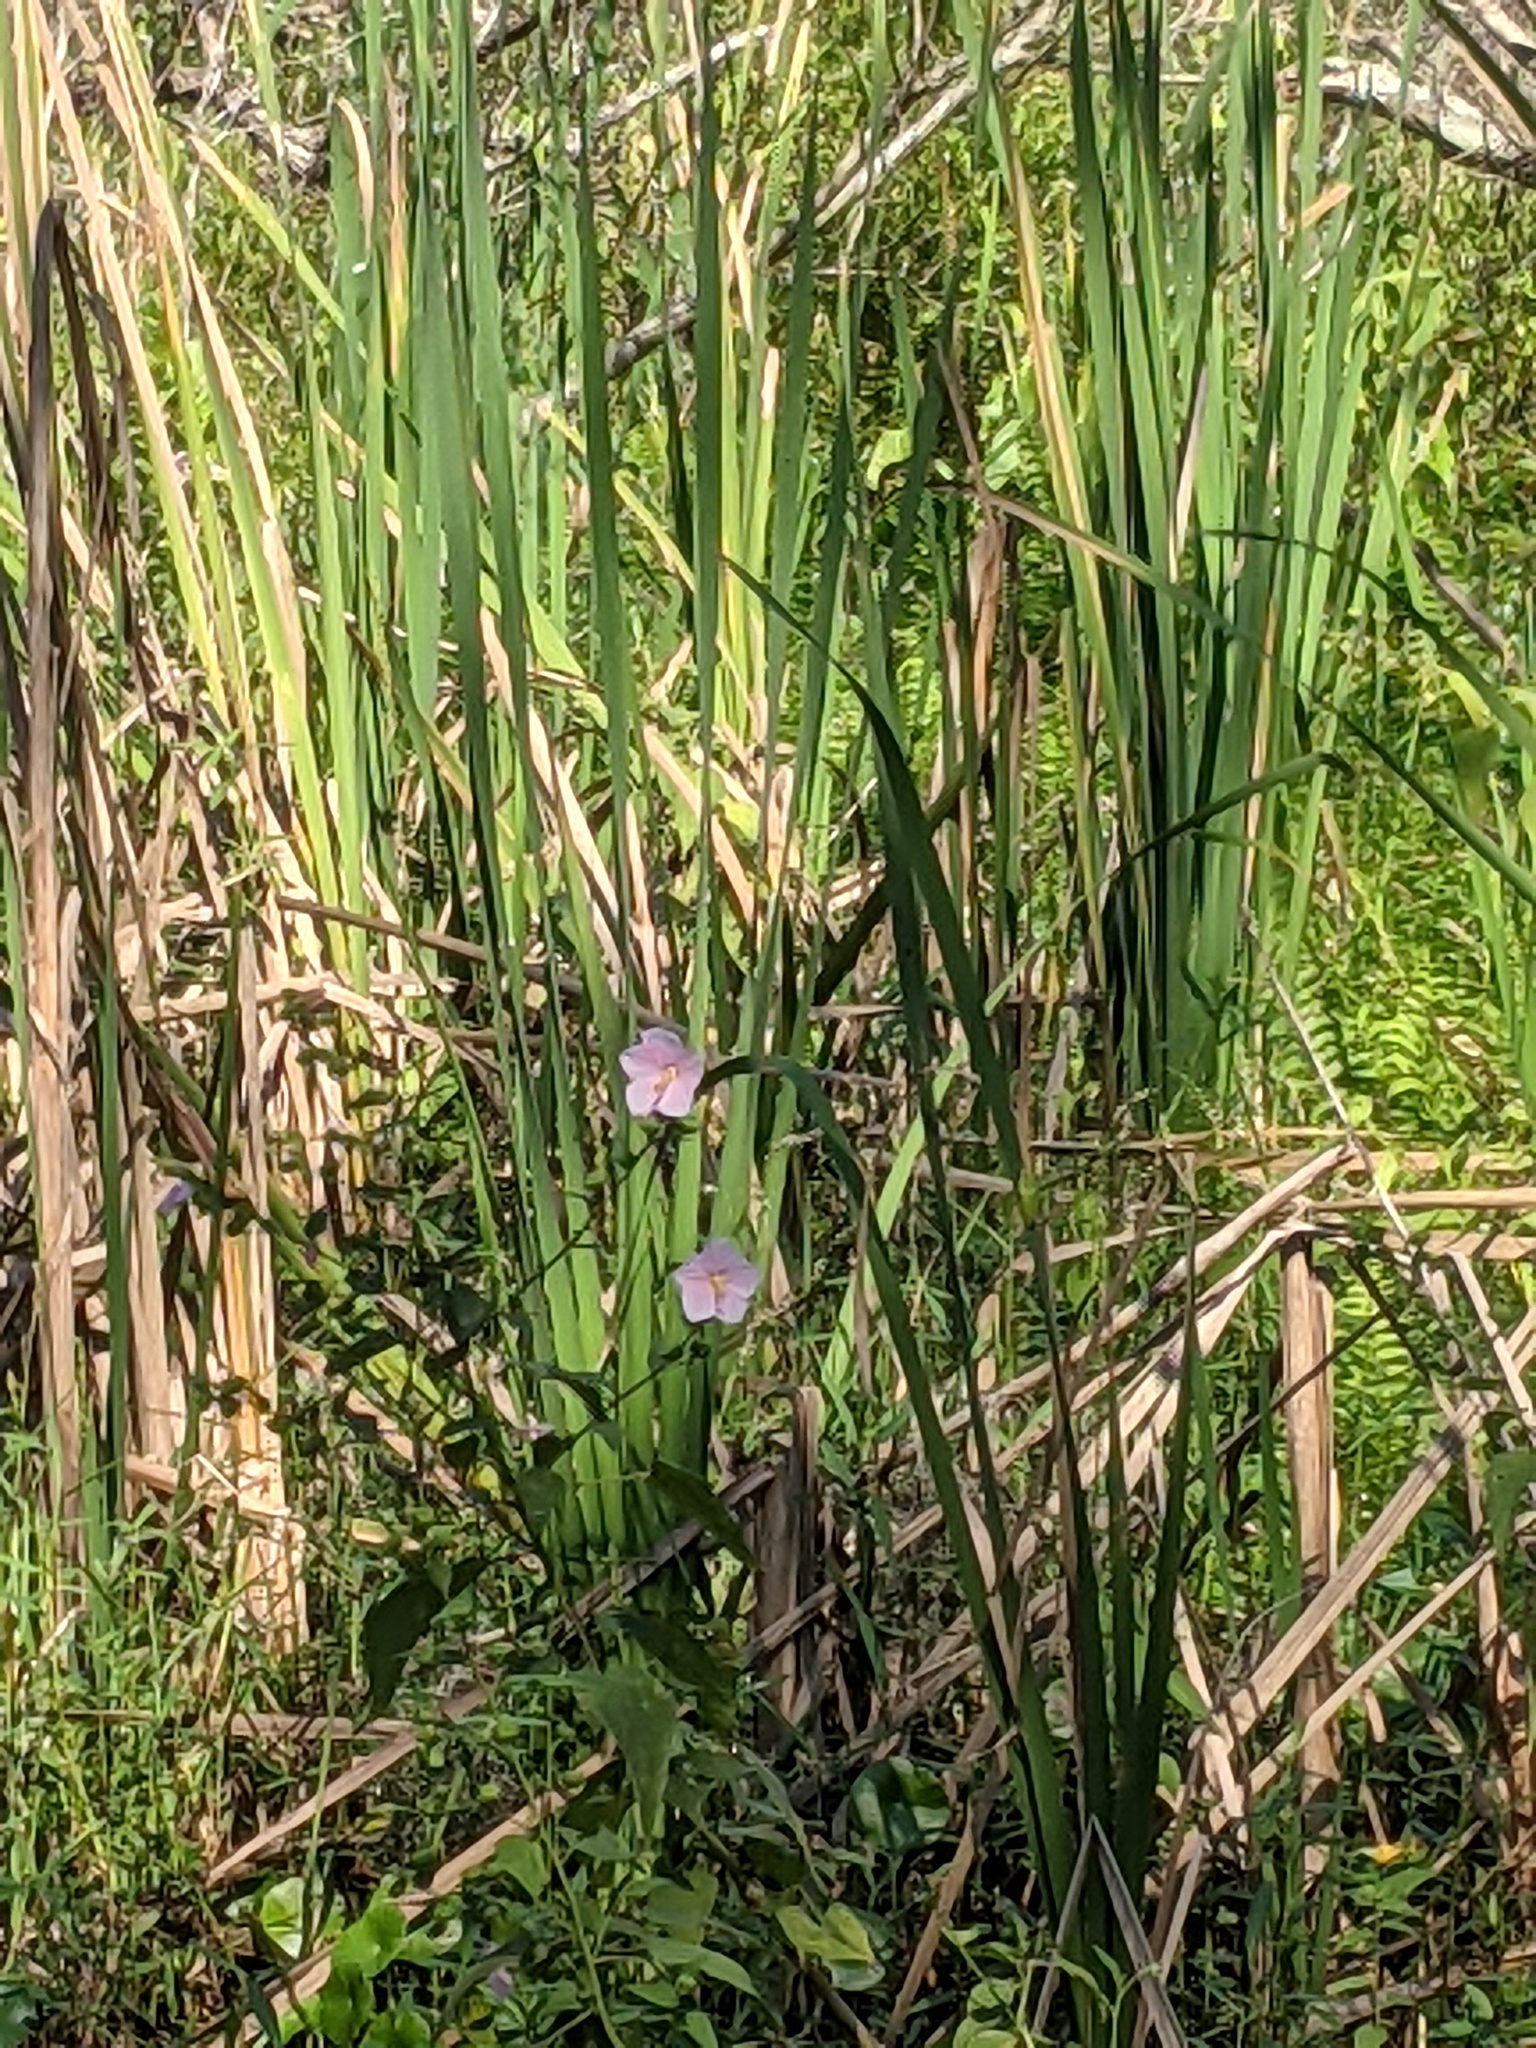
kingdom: Plantae
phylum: Tracheophyta
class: Magnoliopsida
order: Malvales
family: Malvaceae
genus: Kosteletzkya
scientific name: Kosteletzkya pentacarpos
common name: Virginia saltmarsh mallow
